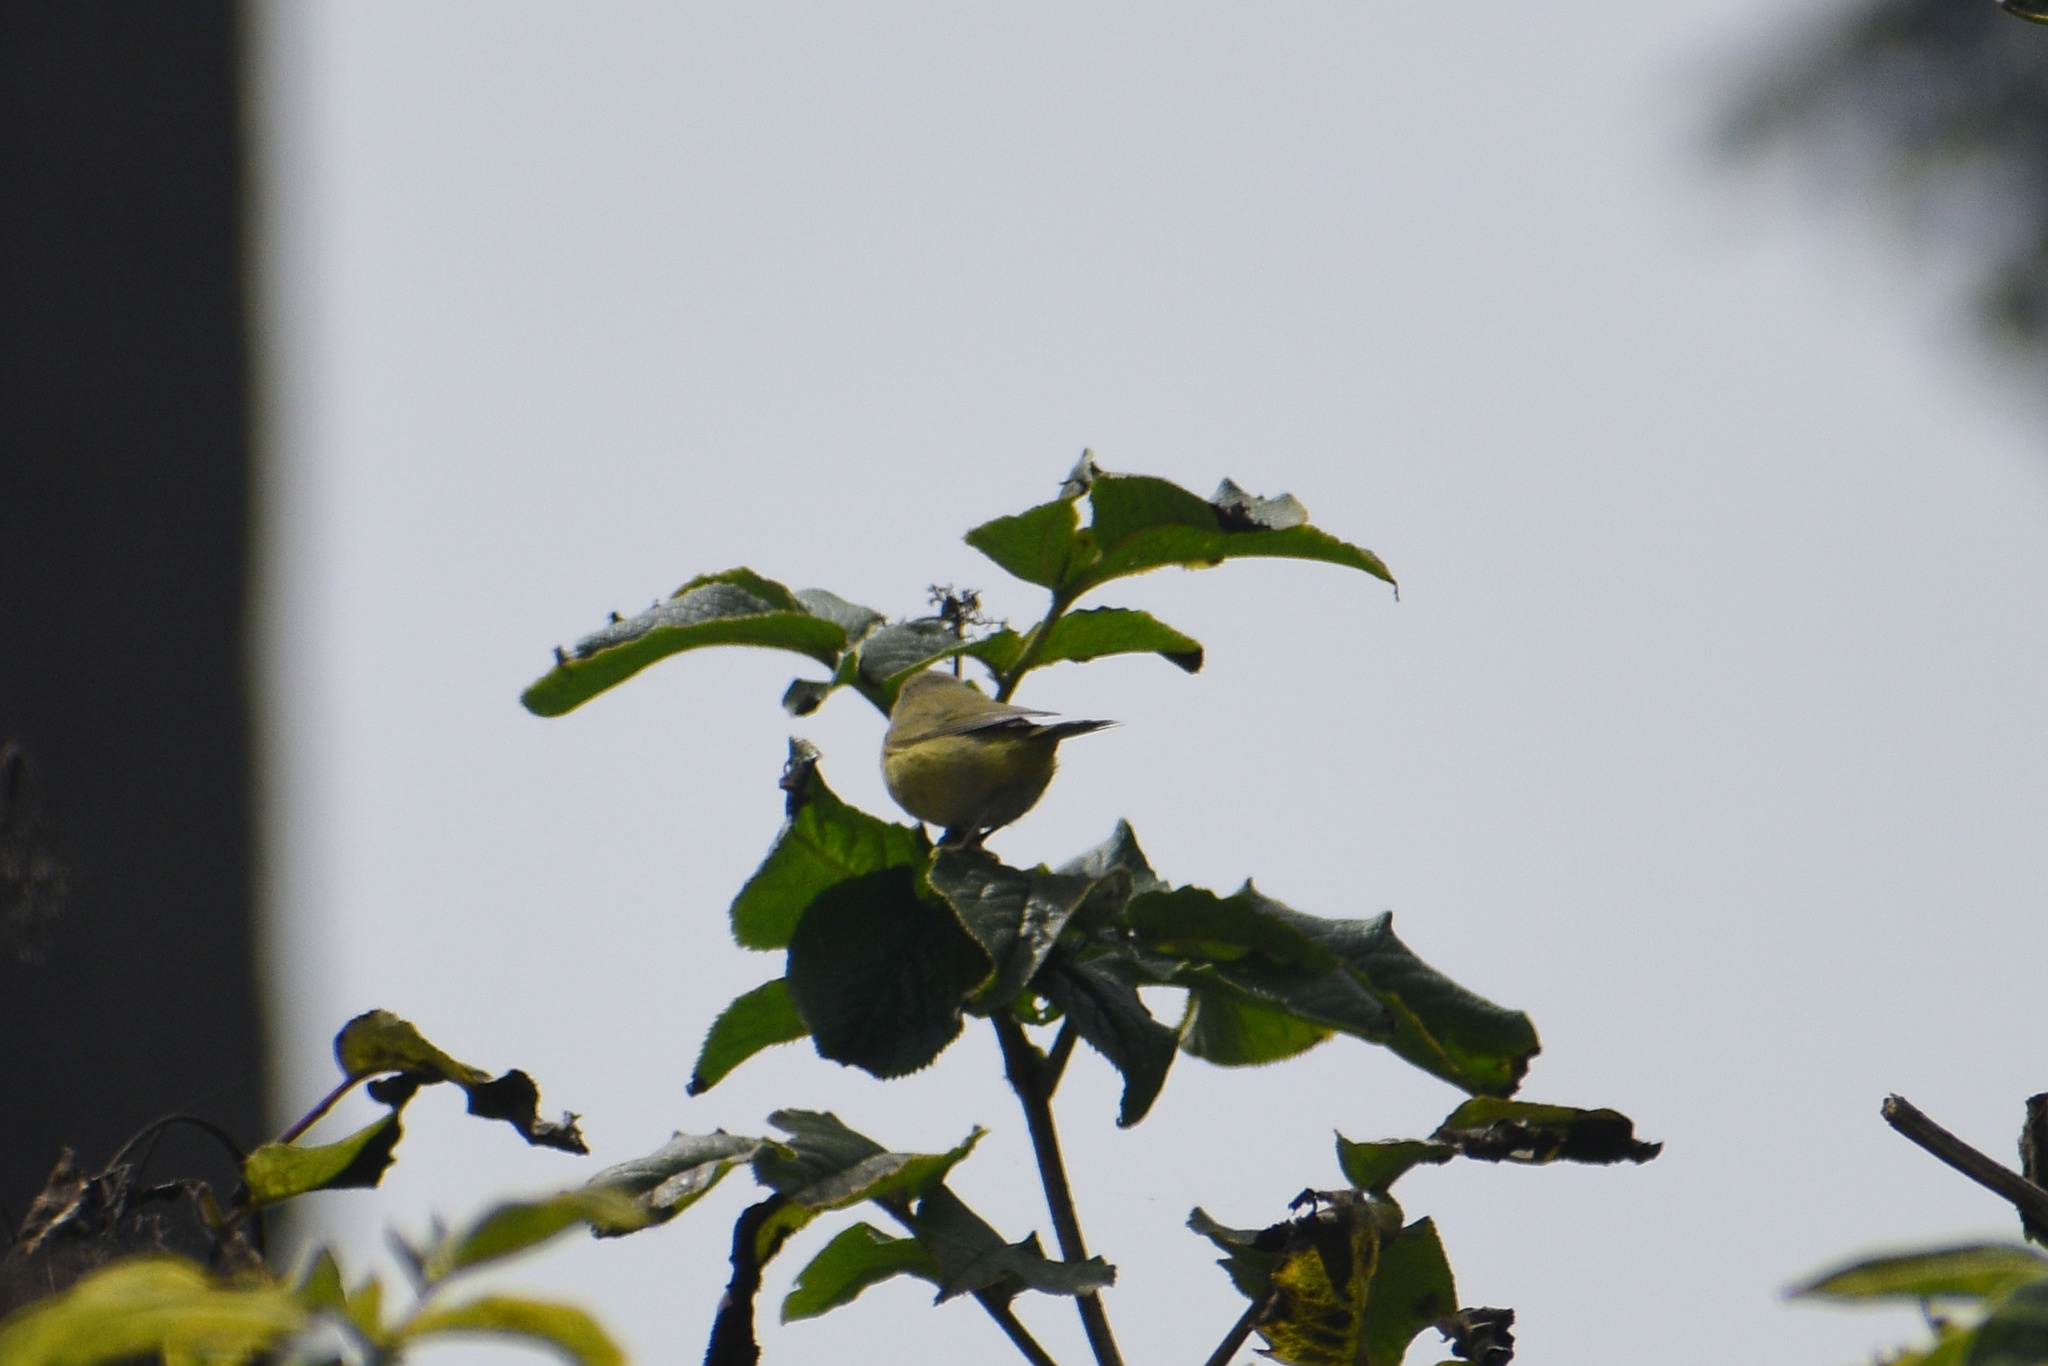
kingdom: Animalia
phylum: Chordata
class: Aves
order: Passeriformes
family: Parulidae
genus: Leiothlypis
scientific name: Leiothlypis celata
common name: Orange-crowned warbler
